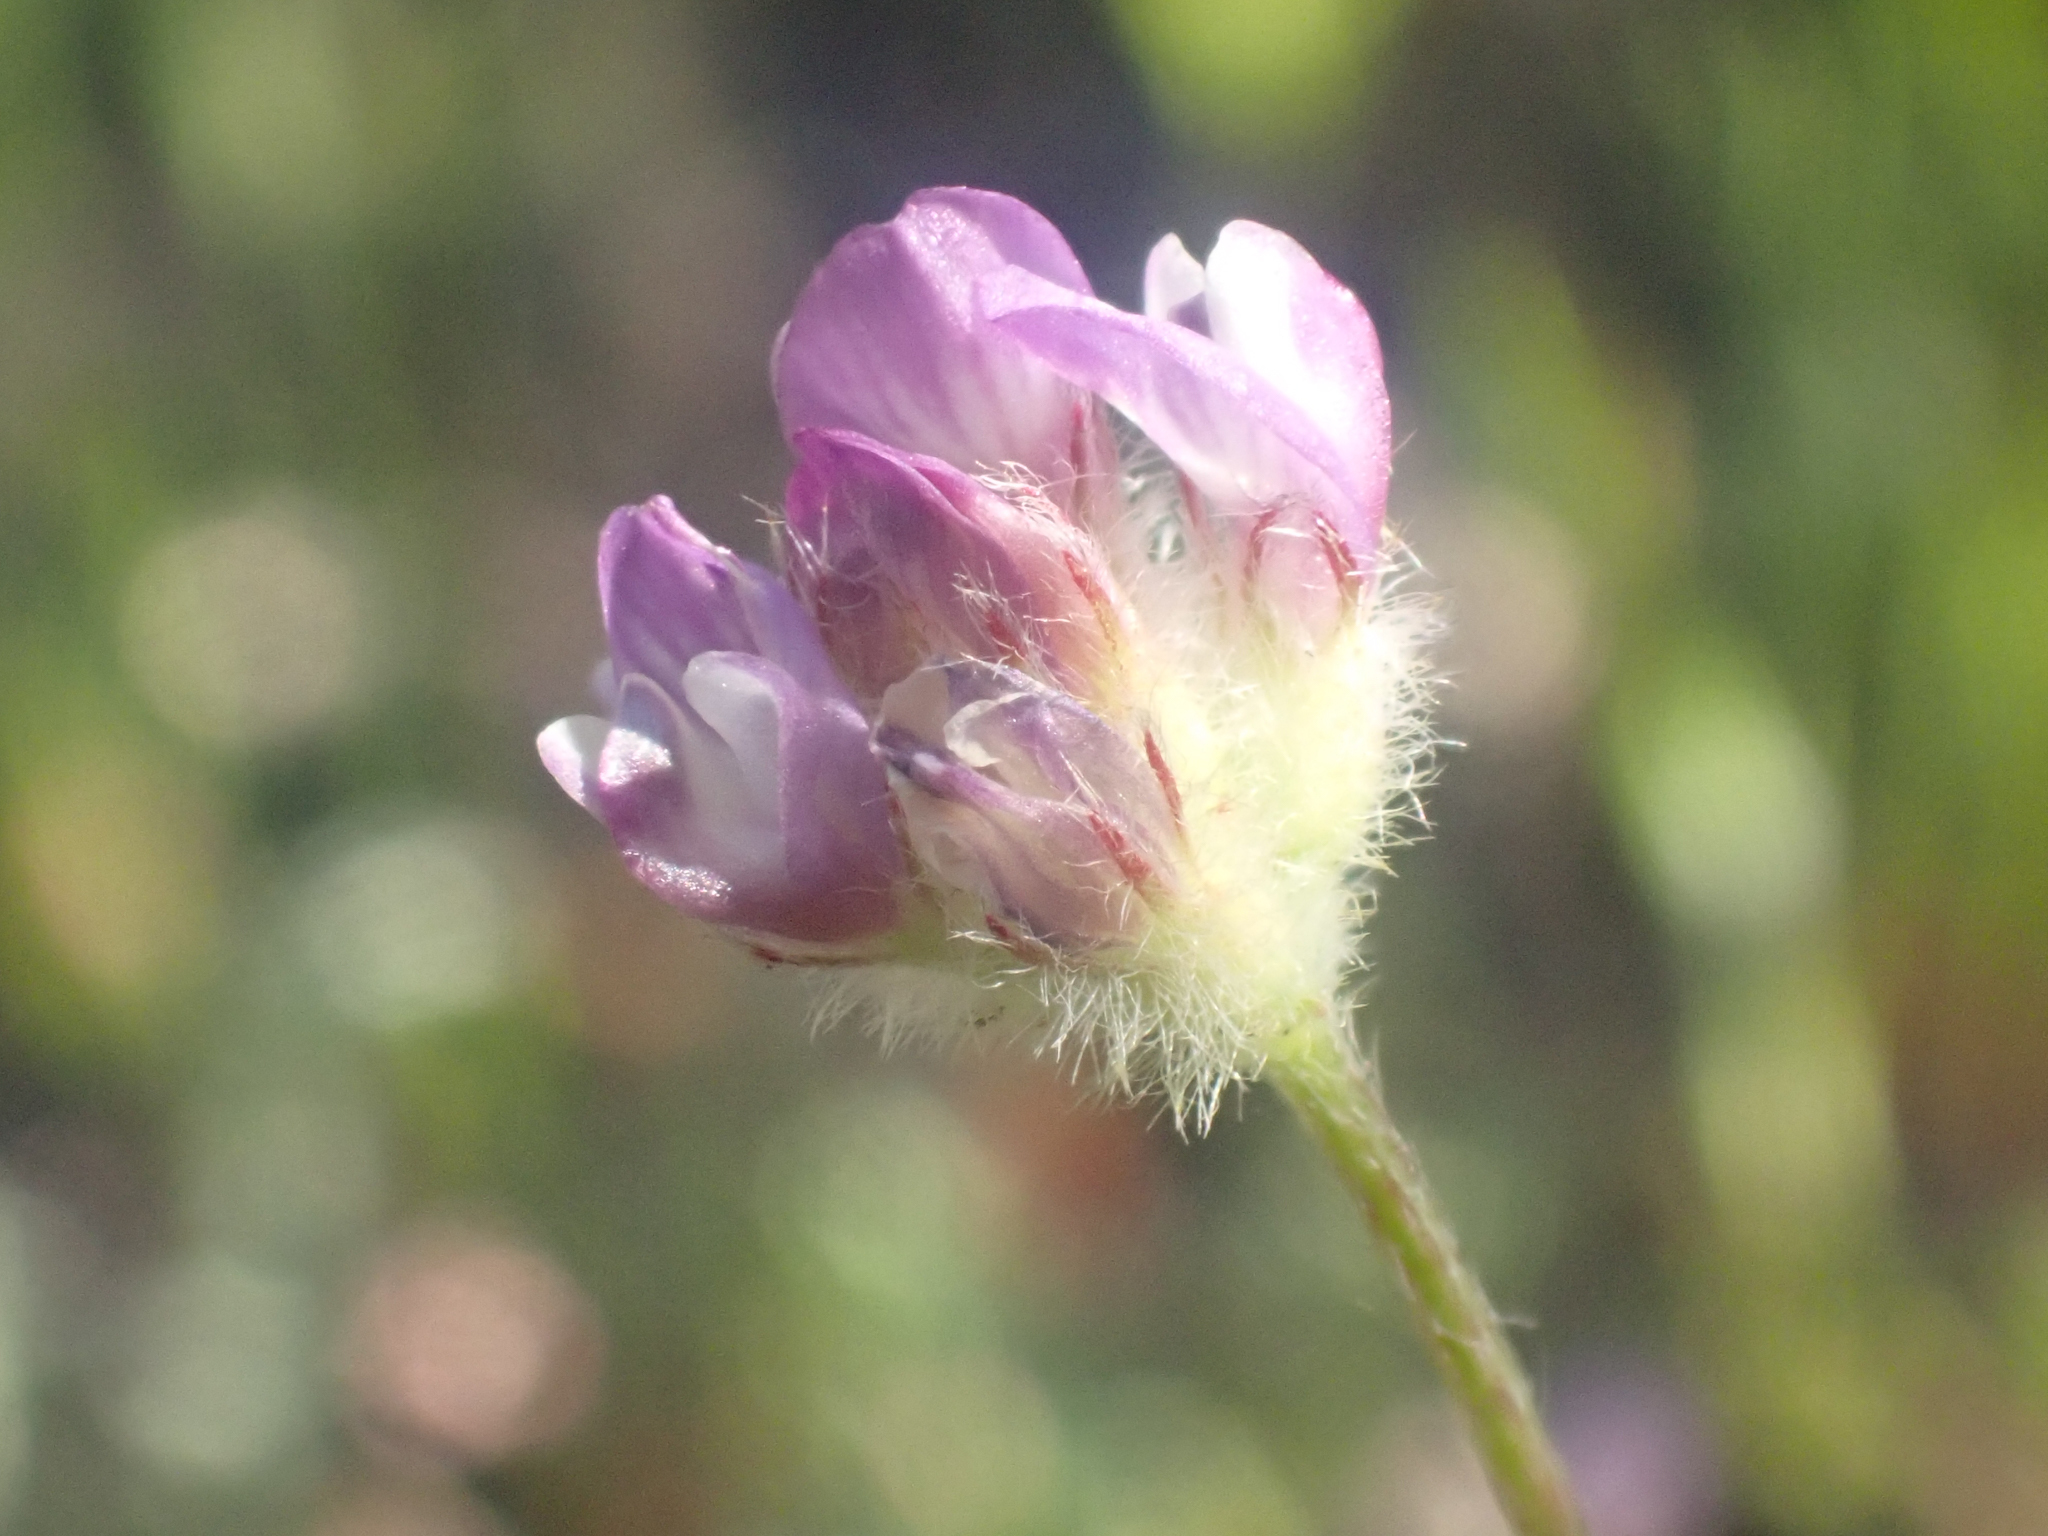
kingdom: Plantae
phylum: Tracheophyta
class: Magnoliopsida
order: Fabales
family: Fabaceae
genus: Astragalus
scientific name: Astragalus didymocarpus
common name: Dwarf white milkvetch
